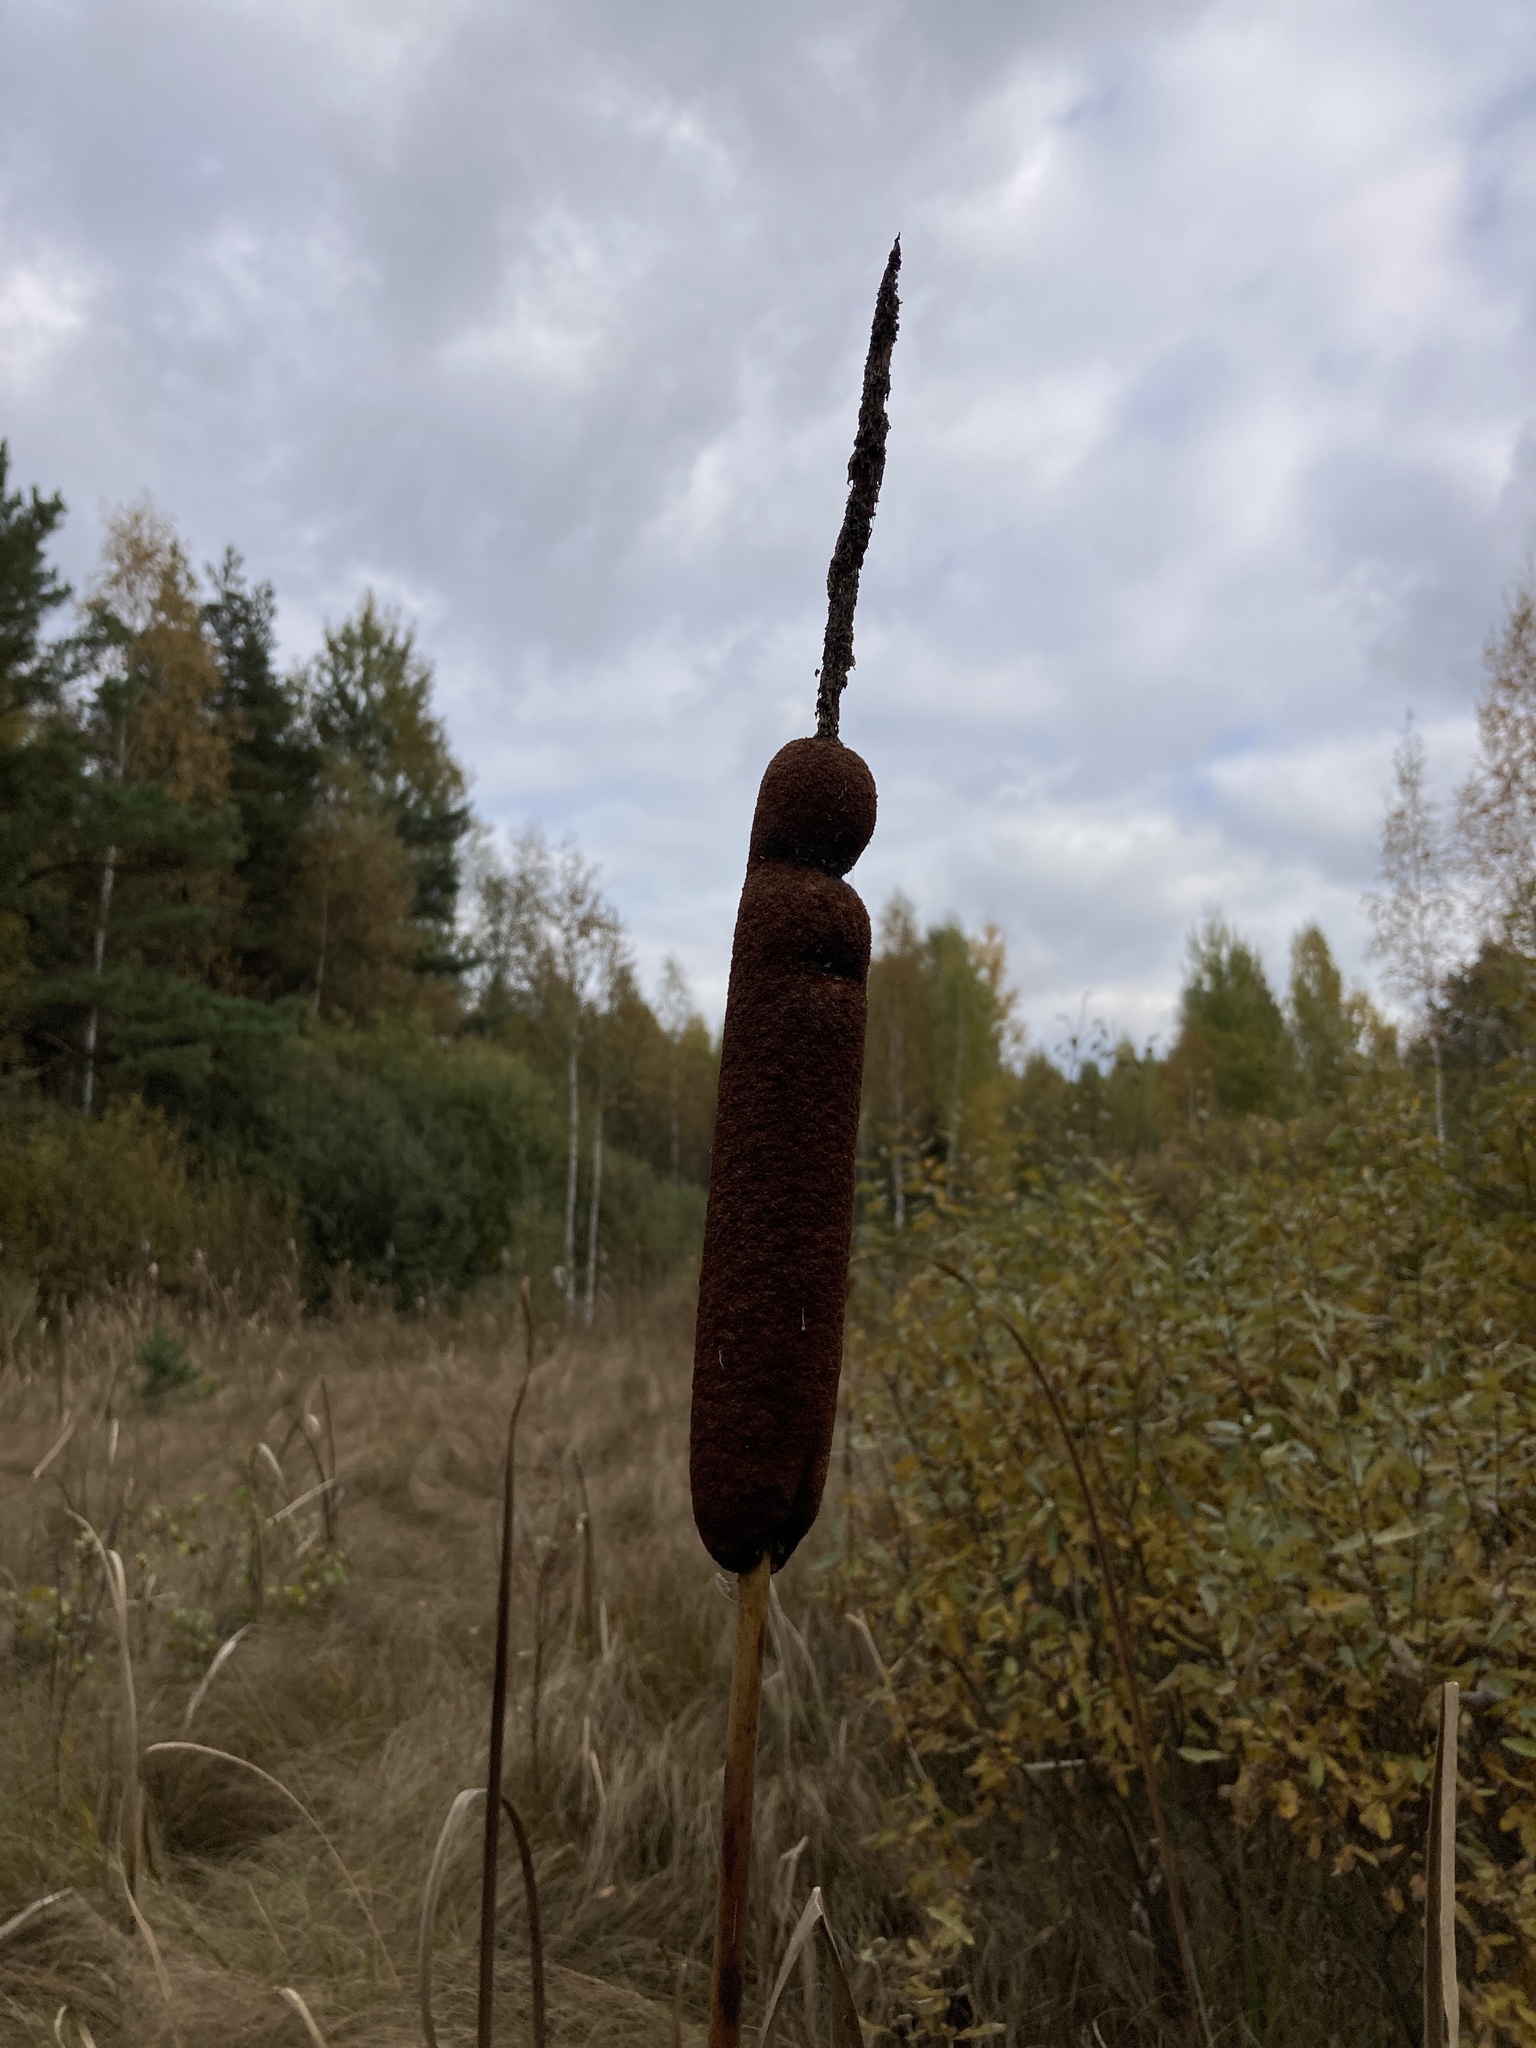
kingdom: Plantae
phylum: Tracheophyta
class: Liliopsida
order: Poales
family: Typhaceae
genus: Typha
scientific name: Typha latifolia
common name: Broadleaf cattail
